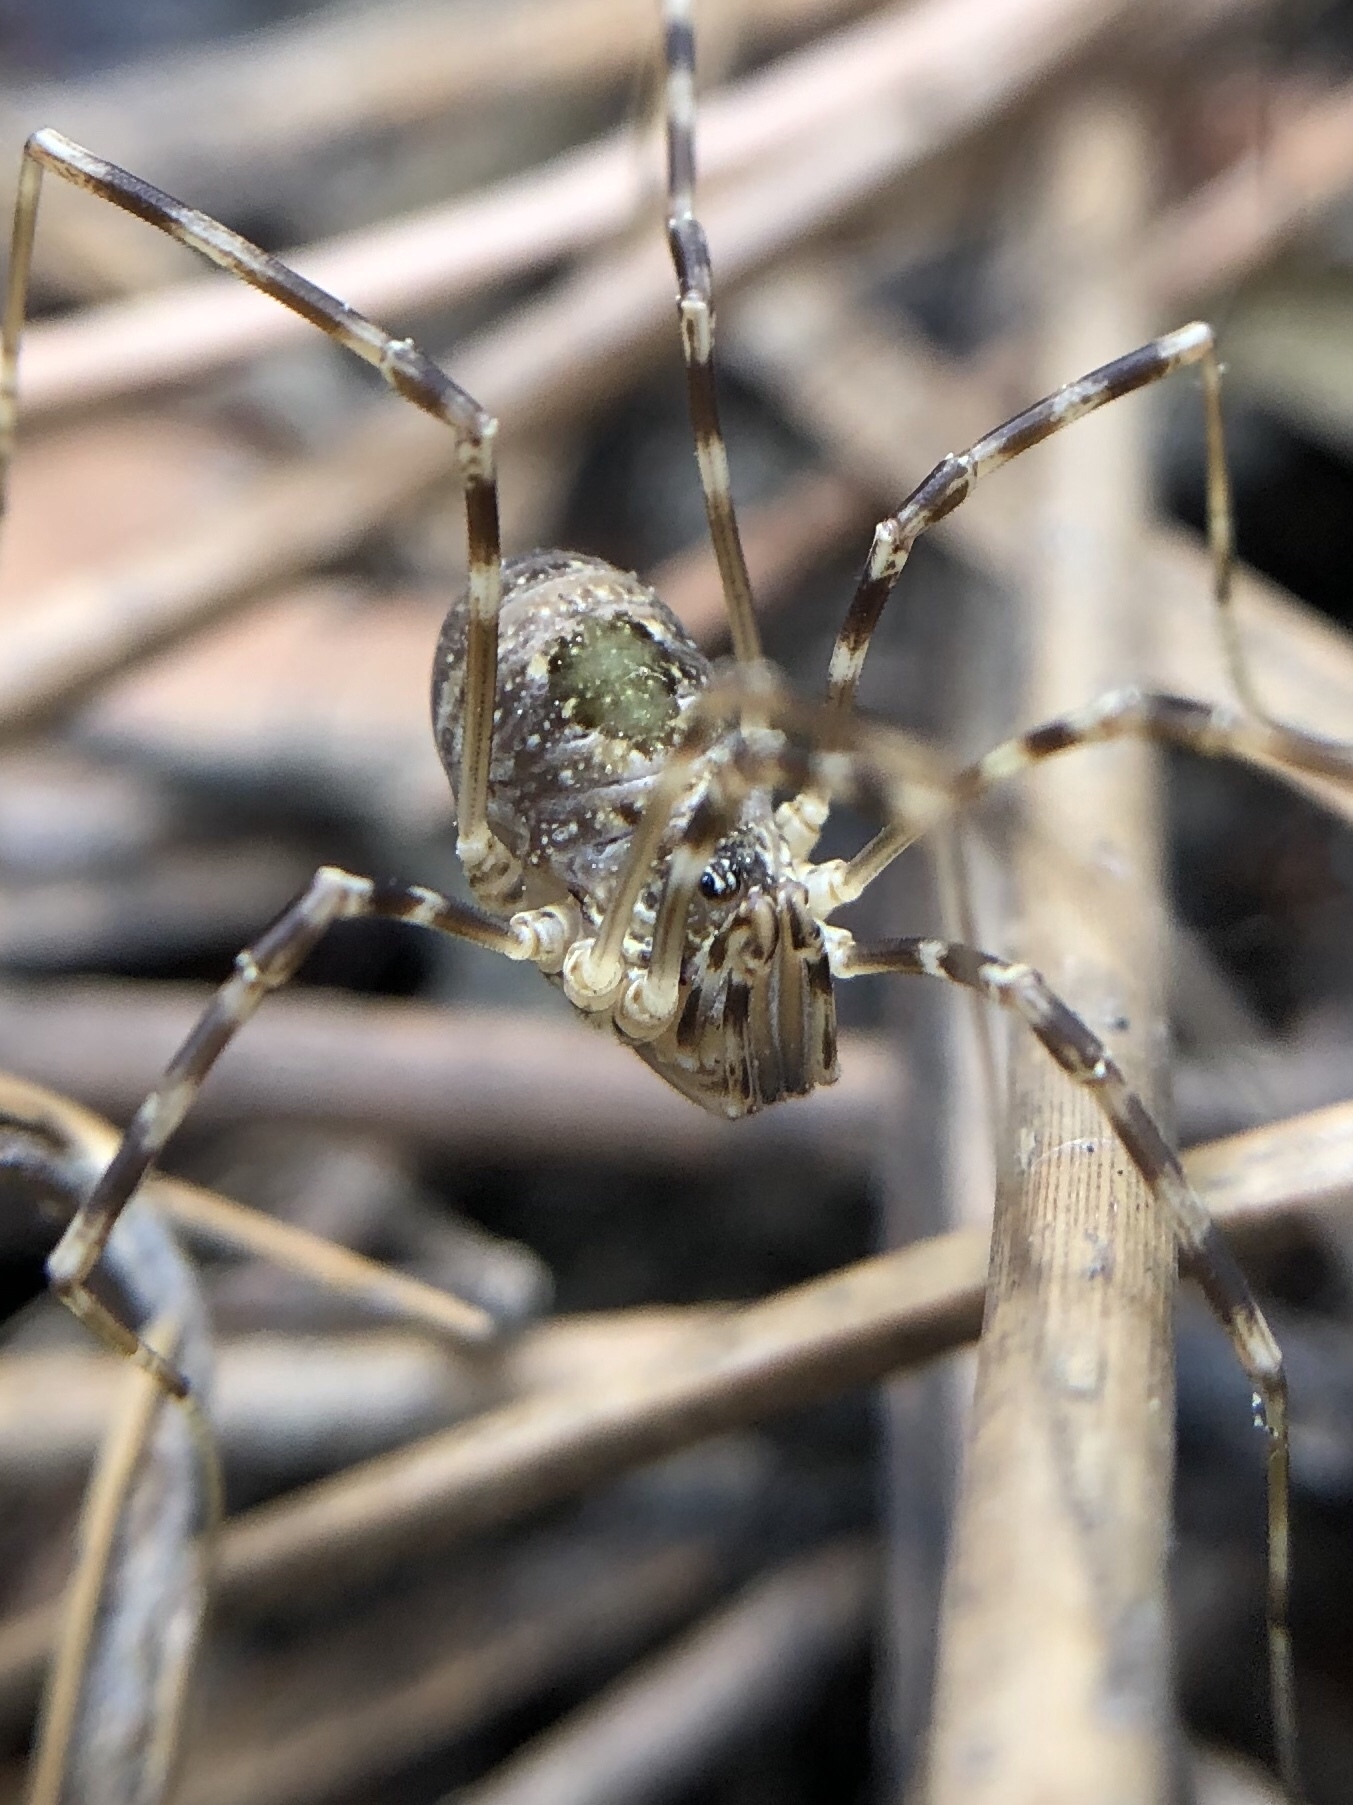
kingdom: Animalia
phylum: Arthropoda
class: Arachnida
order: Opiliones
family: Phalangiidae
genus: Dicranopalpus
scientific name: Dicranopalpus martini
